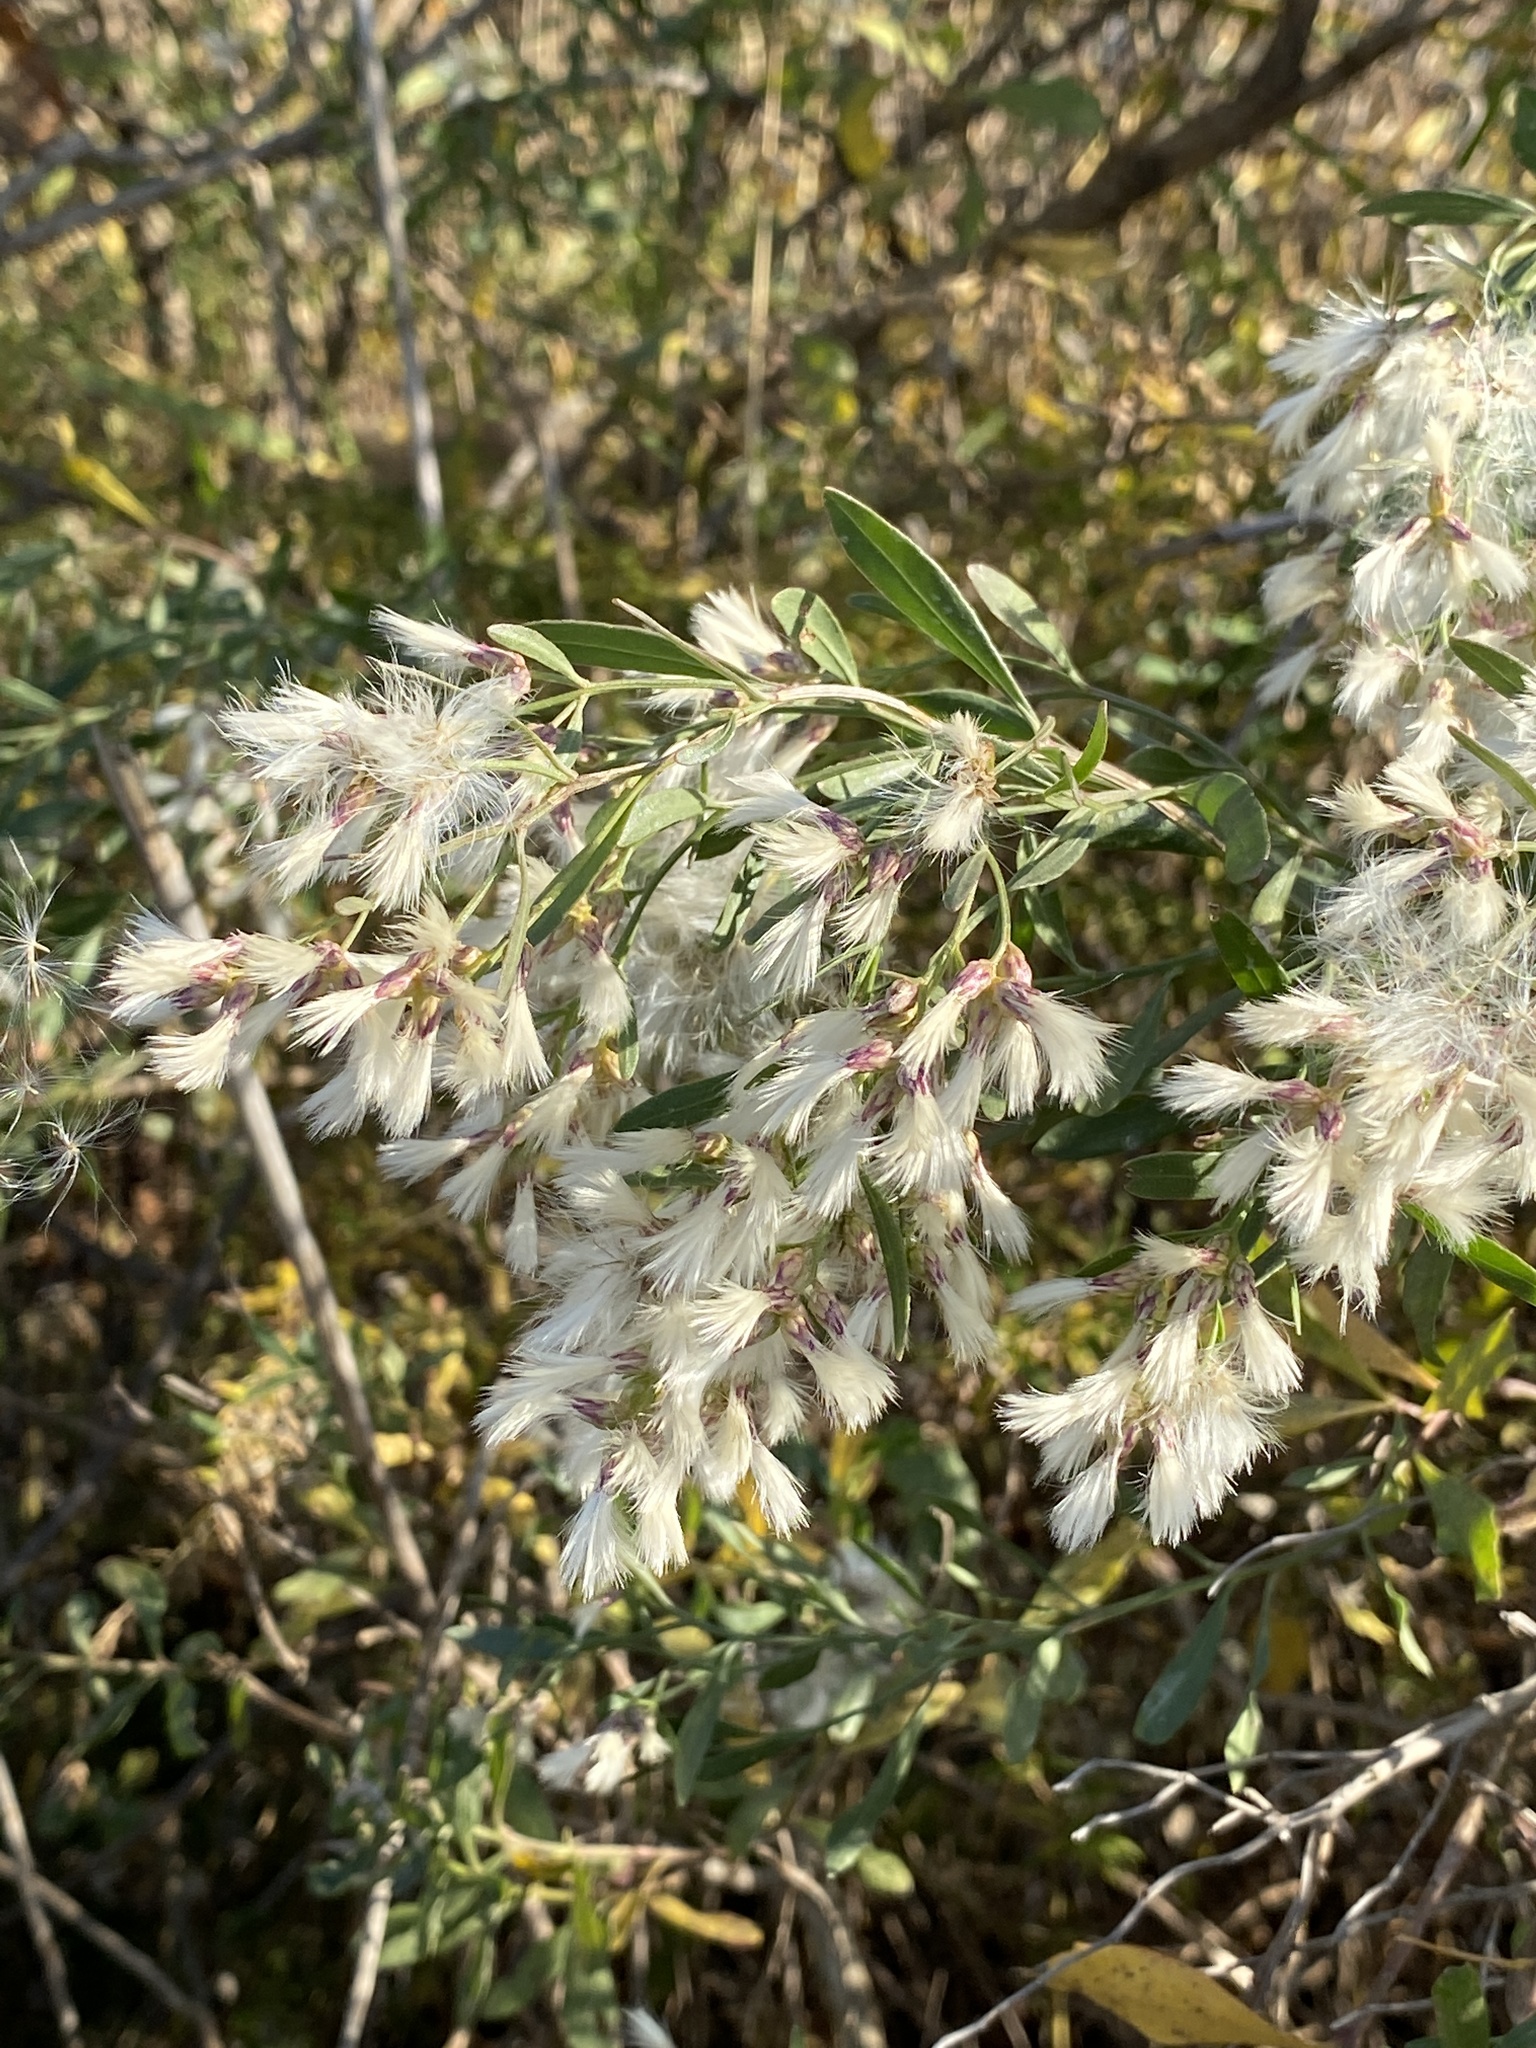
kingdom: Plantae
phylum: Tracheophyta
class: Magnoliopsida
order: Asterales
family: Asteraceae
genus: Baccharis
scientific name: Baccharis halimifolia
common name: Eastern baccharis
